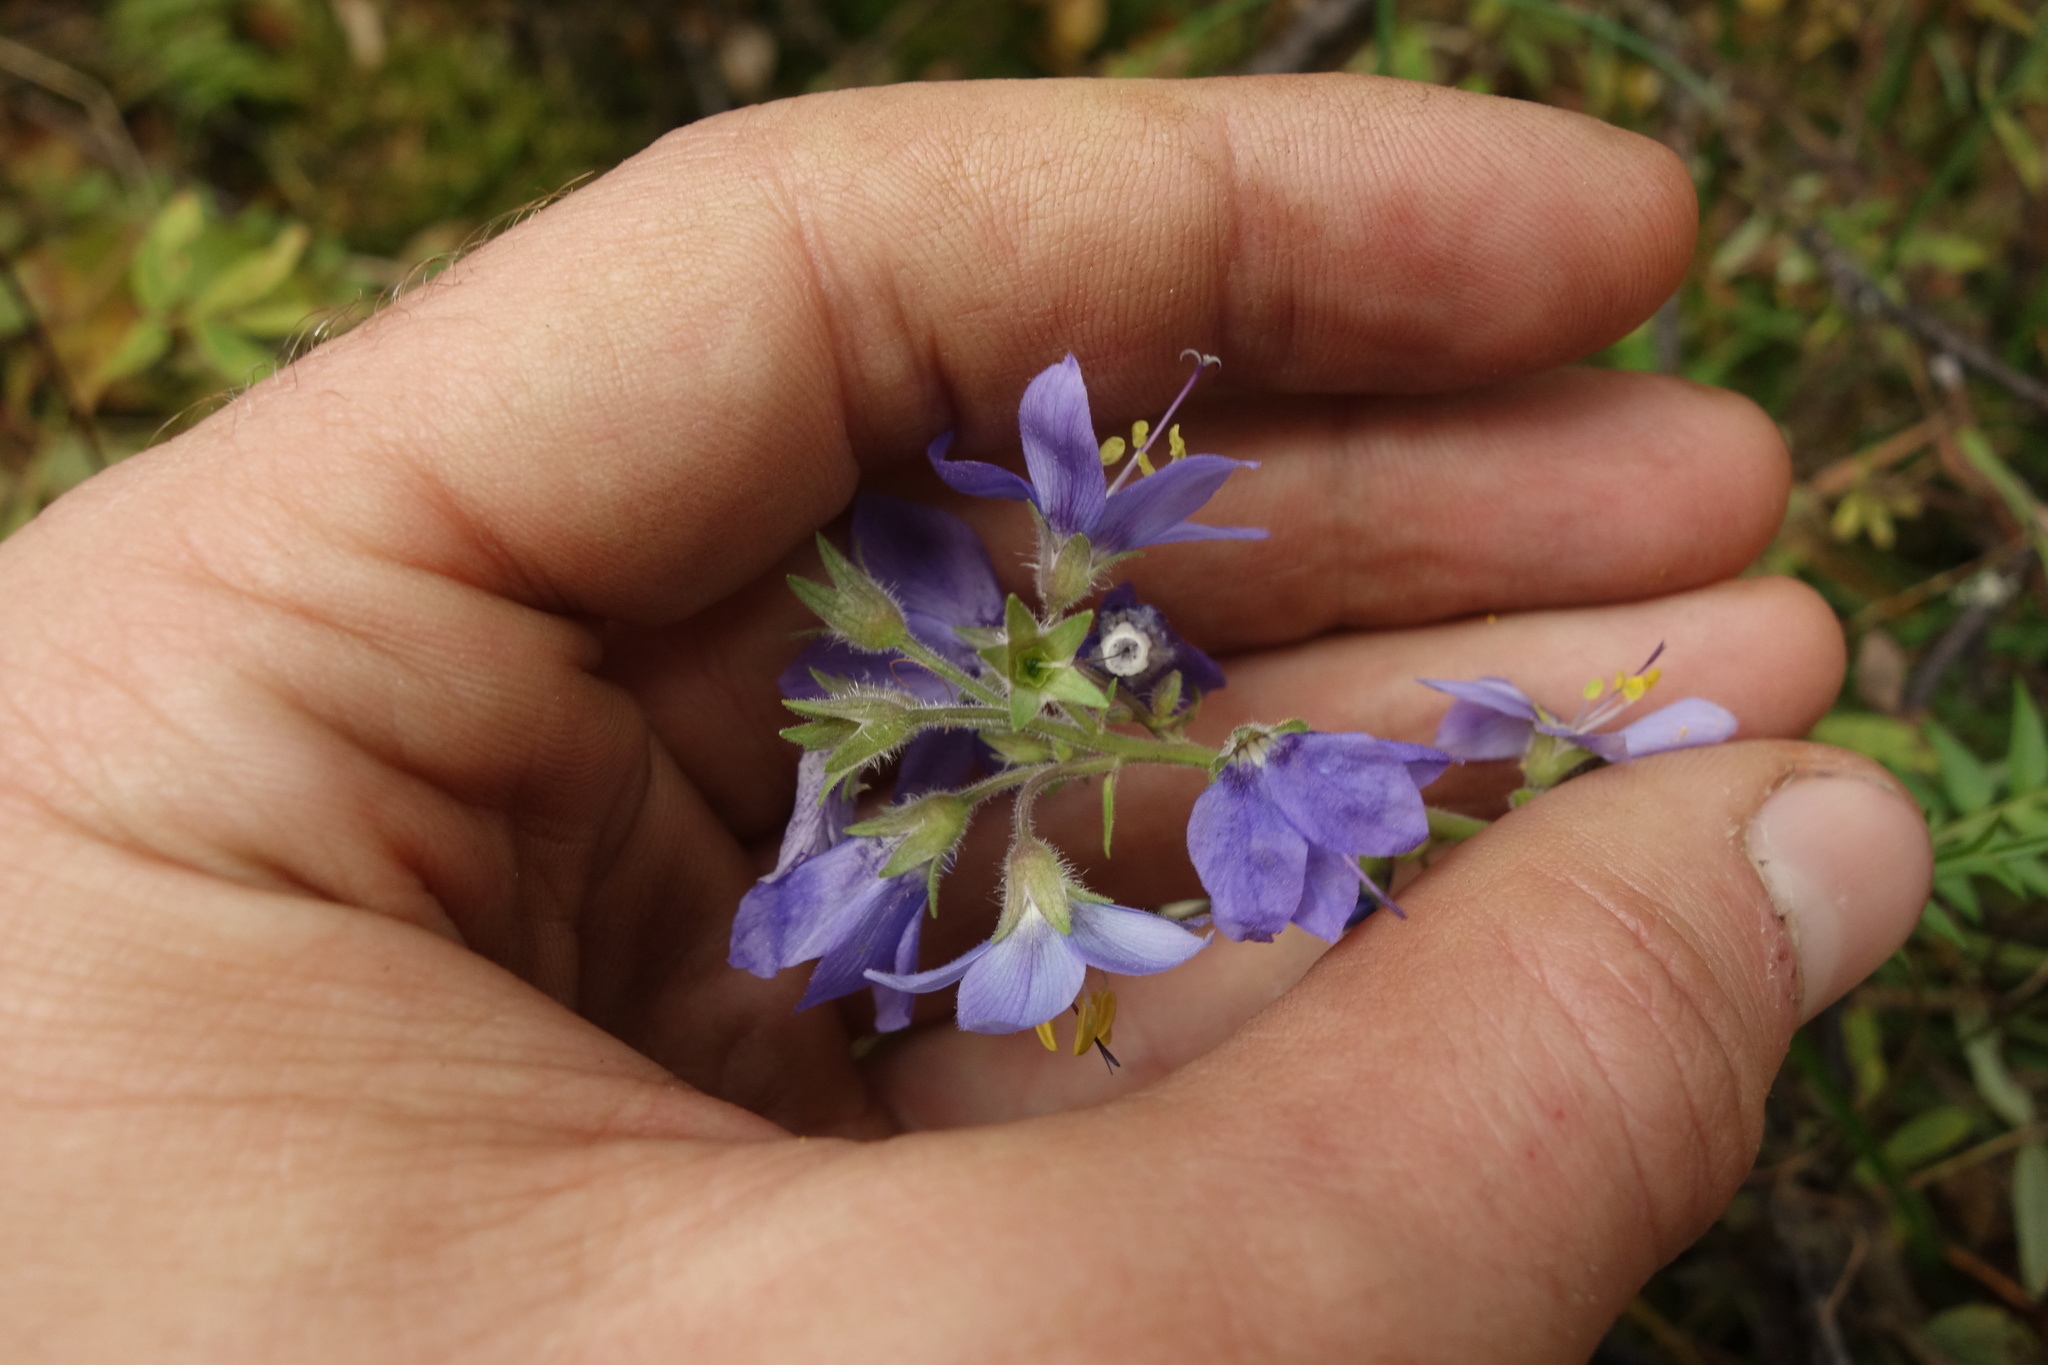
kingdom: Plantae
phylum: Tracheophyta
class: Magnoliopsida
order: Ericales
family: Polemoniaceae
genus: Polemonium
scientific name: Polemonium acutiflorum
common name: Tall jacob's-ladder
